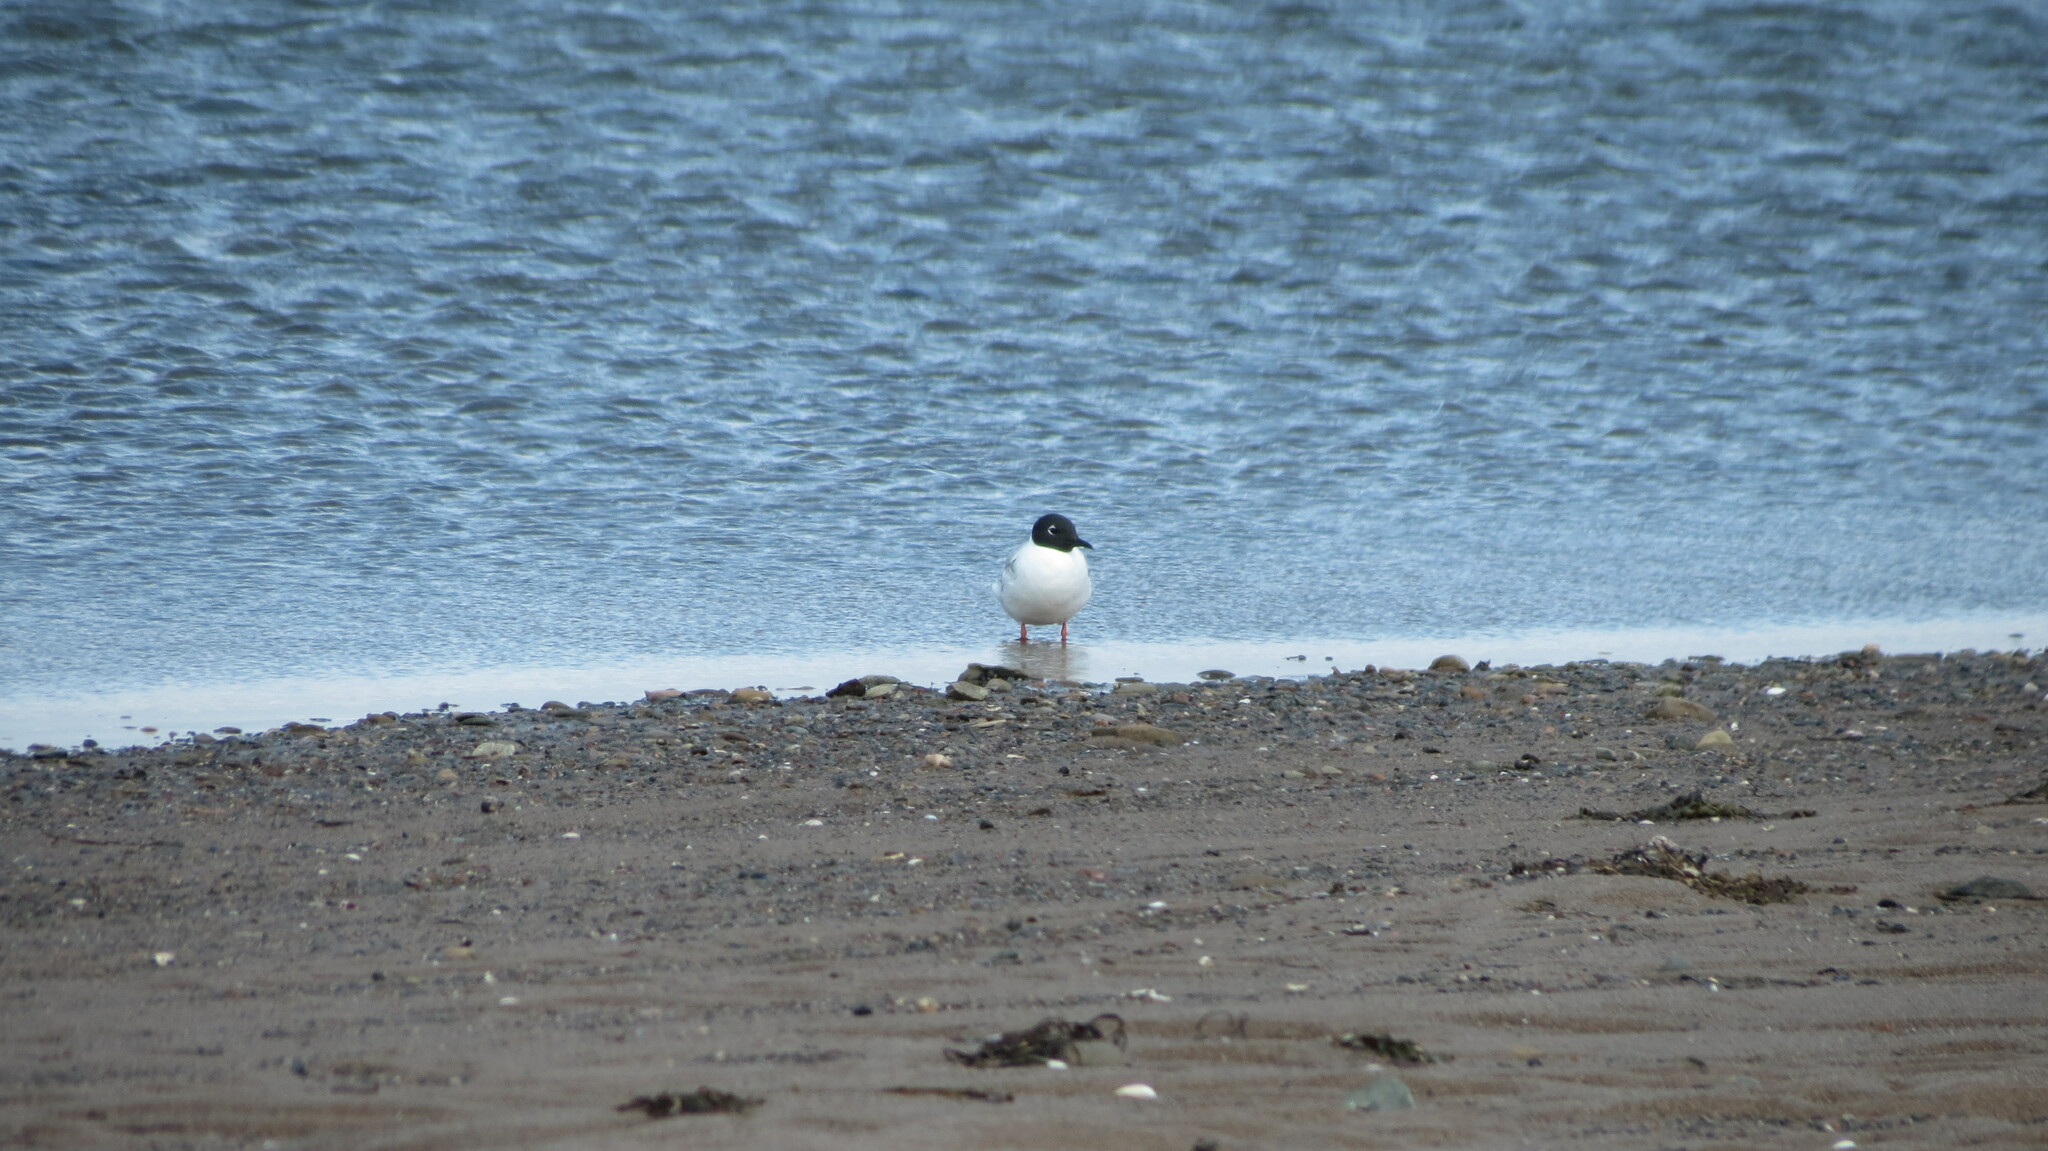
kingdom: Animalia
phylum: Chordata
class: Aves
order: Charadriiformes
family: Laridae
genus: Chroicocephalus
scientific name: Chroicocephalus philadelphia
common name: Bonaparte's gull
